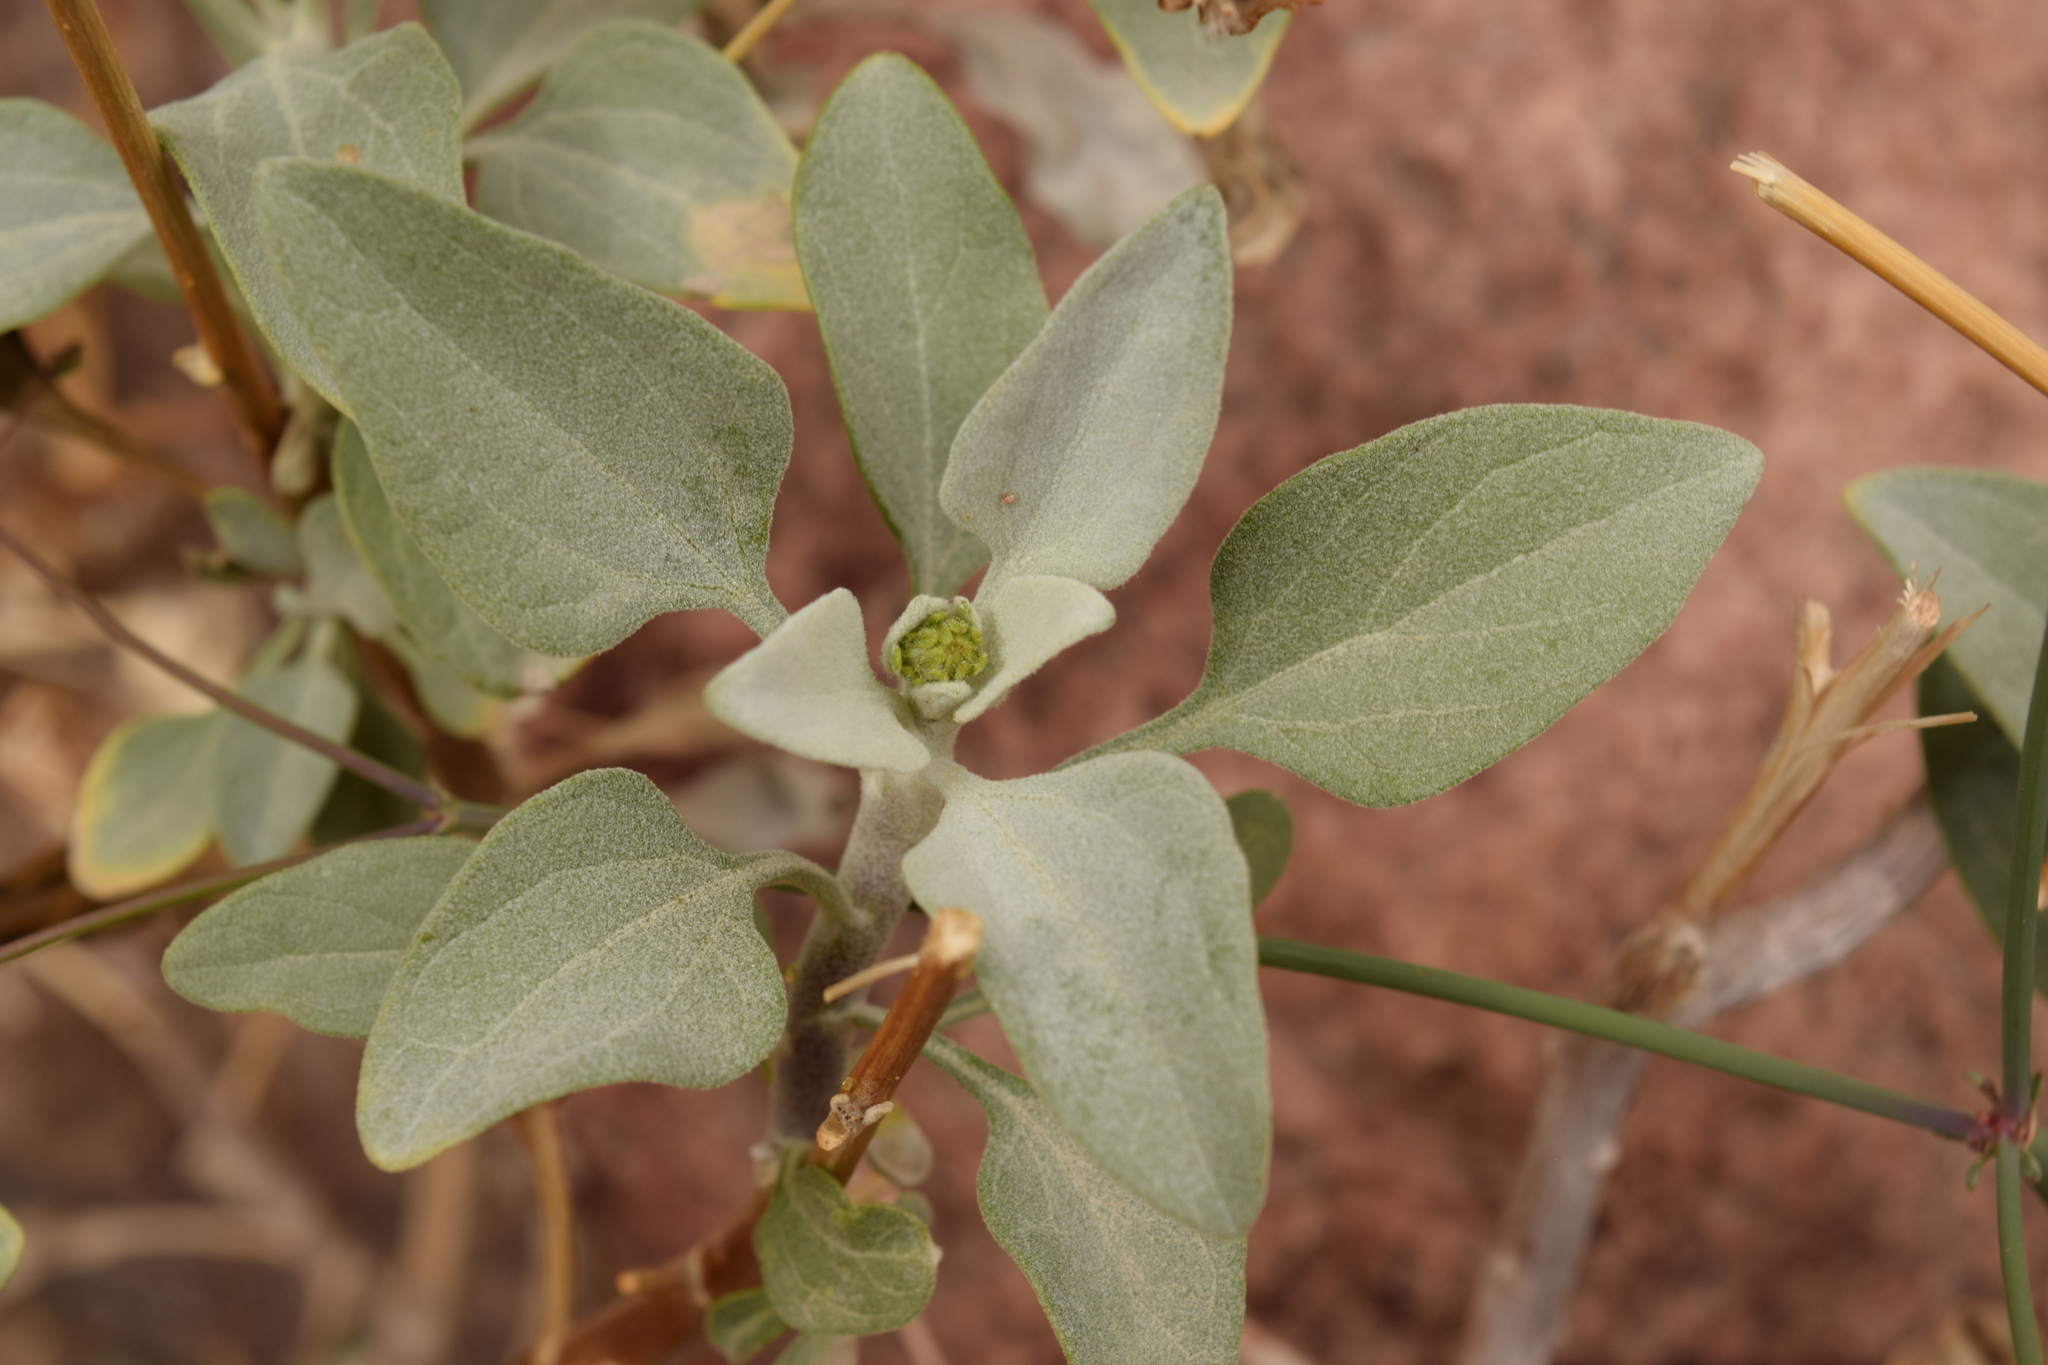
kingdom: Plantae
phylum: Tracheophyta
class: Magnoliopsida
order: Asterales
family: Asteraceae
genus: Encelia
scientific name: Encelia farinosa
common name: Brittlebush
